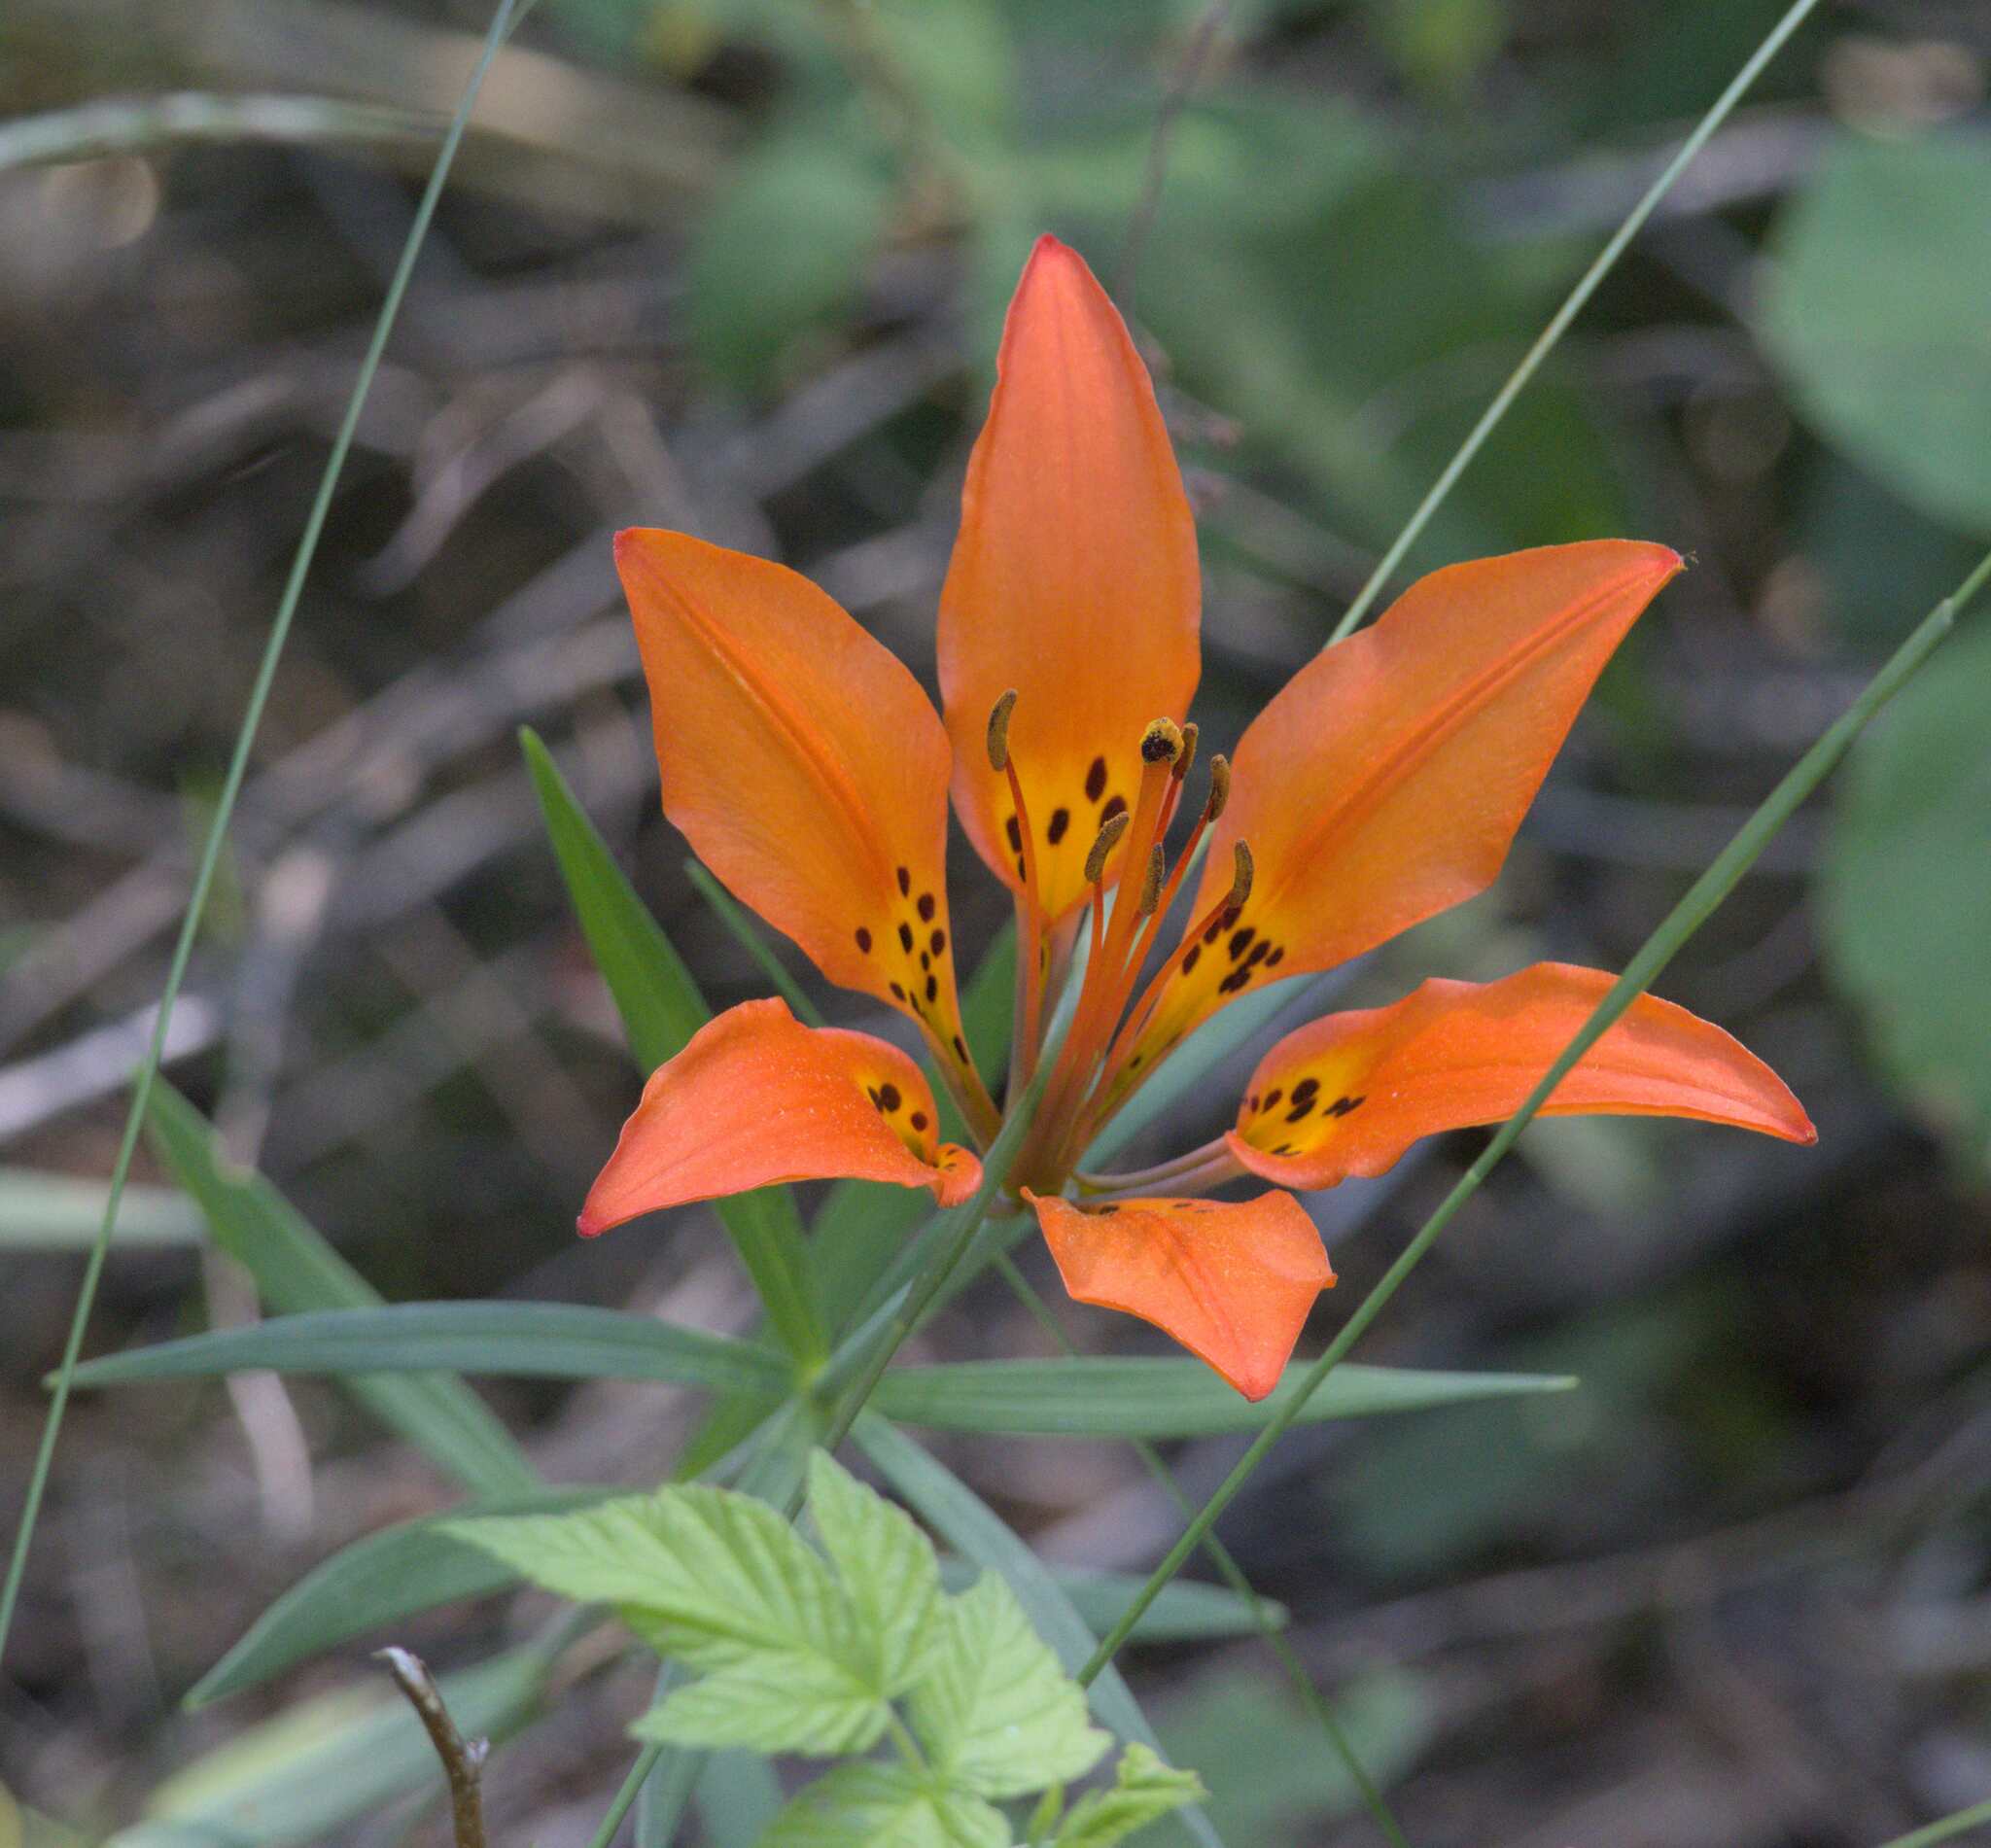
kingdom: Plantae
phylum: Tracheophyta
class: Liliopsida
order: Liliales
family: Liliaceae
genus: Lilium
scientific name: Lilium philadelphicum
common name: Red lily
